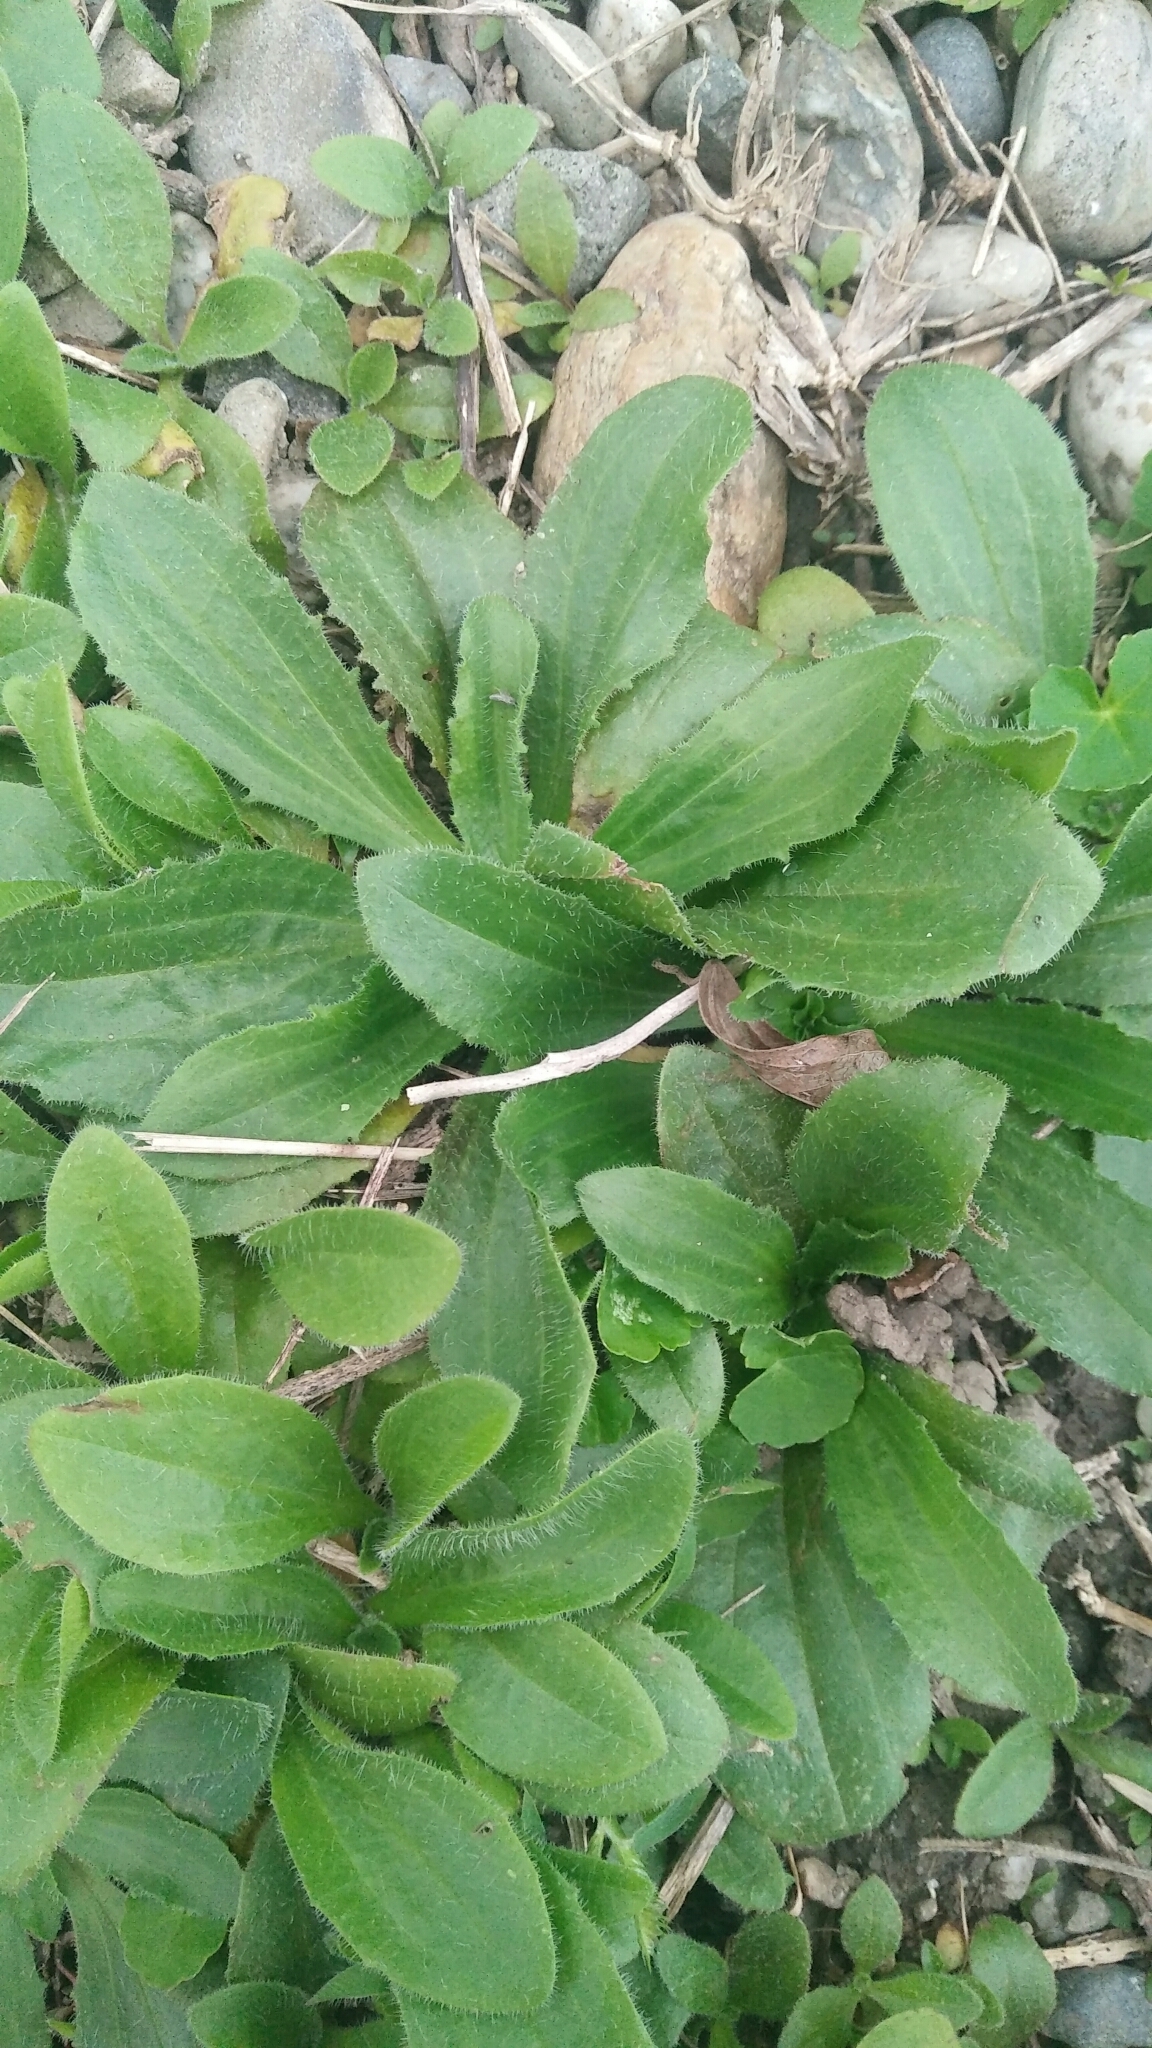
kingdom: Plantae
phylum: Tracheophyta
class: Magnoliopsida
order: Lamiales
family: Plantaginaceae
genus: Plantago
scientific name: Plantago virginica
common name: Hoary plantain
